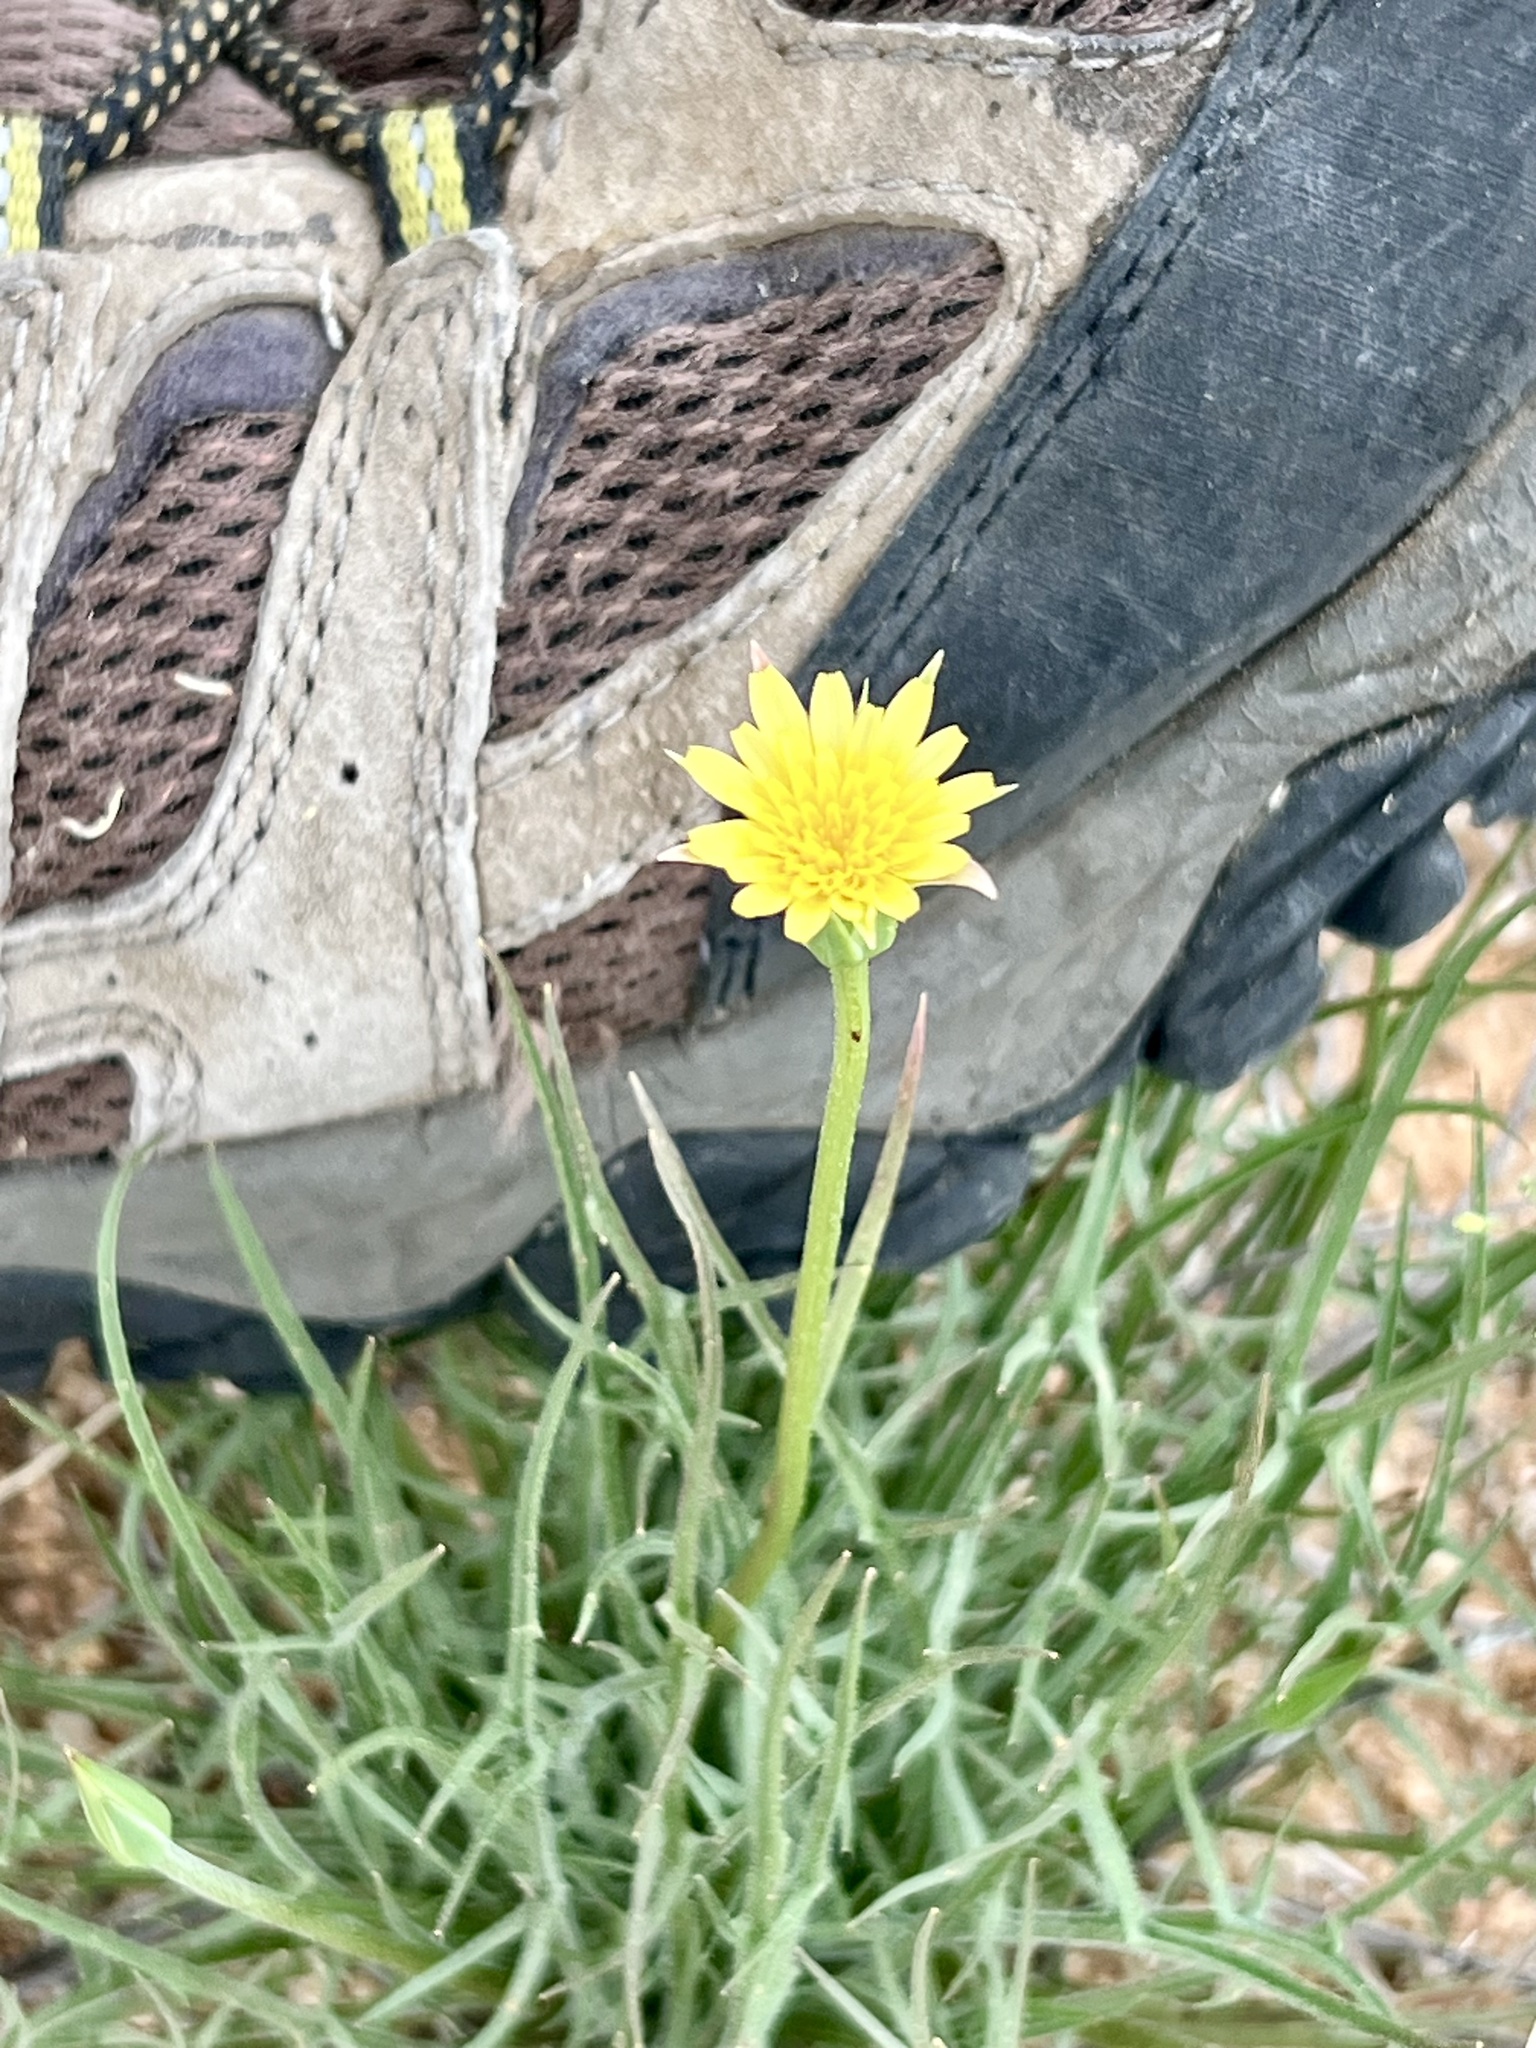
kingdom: Plantae
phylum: Tracheophyta
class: Magnoliopsida
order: Asterales
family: Asteraceae
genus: Microseris
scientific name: Microseris lindleyi
